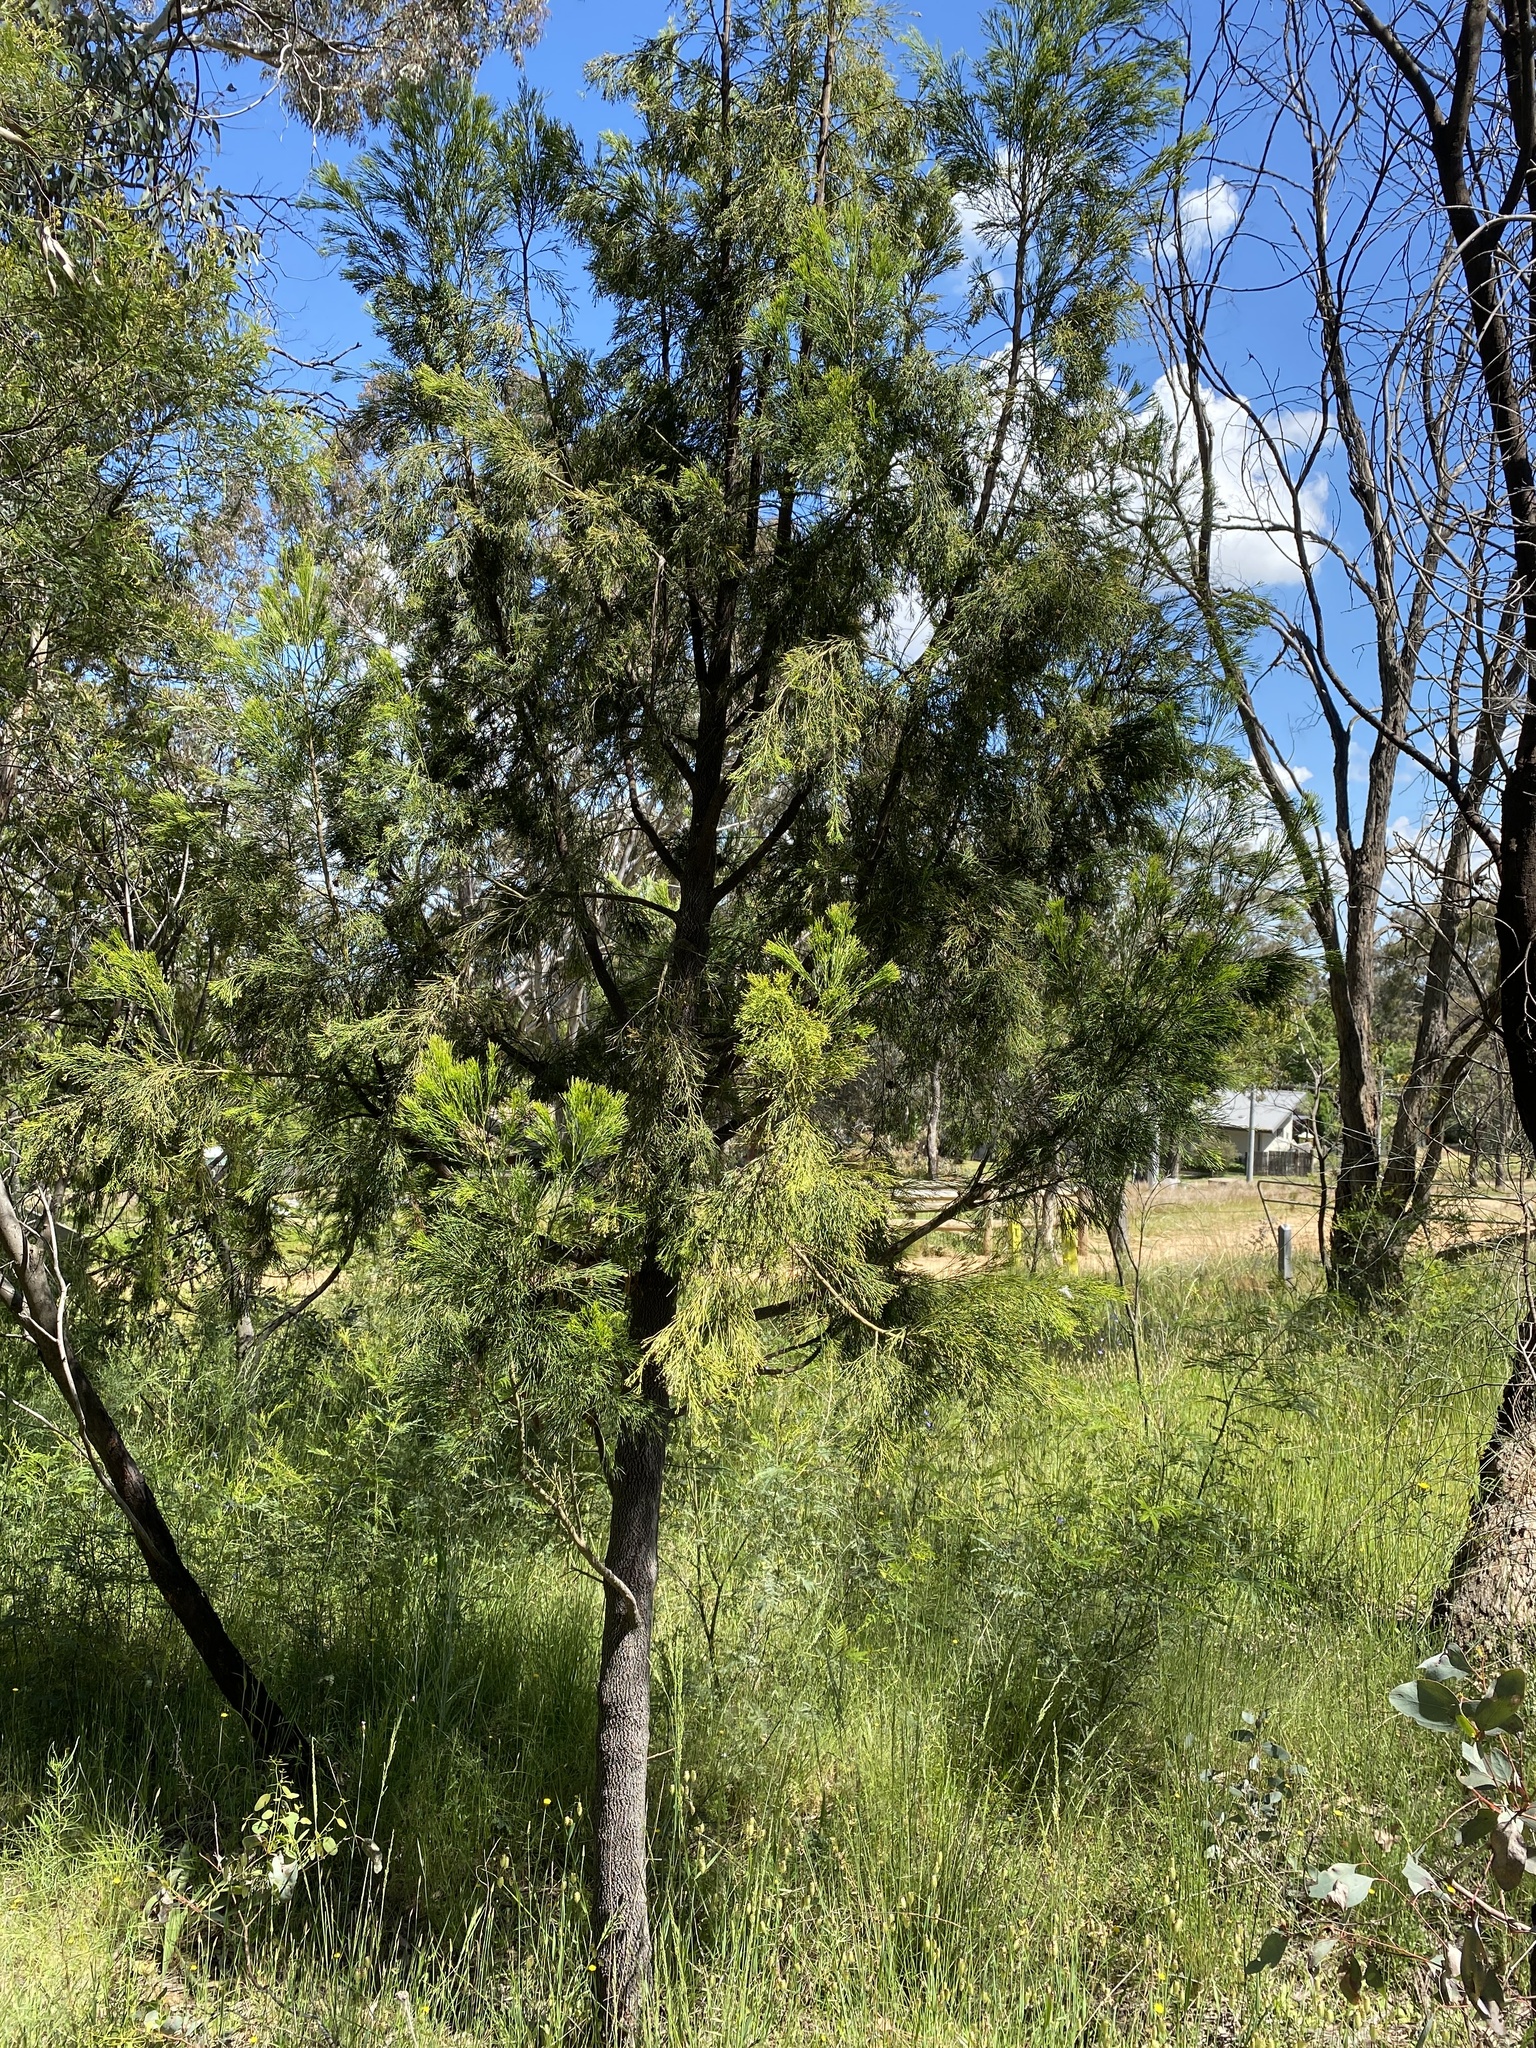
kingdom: Plantae
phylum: Tracheophyta
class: Magnoliopsida
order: Santalales
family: Santalaceae
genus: Exocarpos
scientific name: Exocarpos cupressiformis
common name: Cherry ballart
